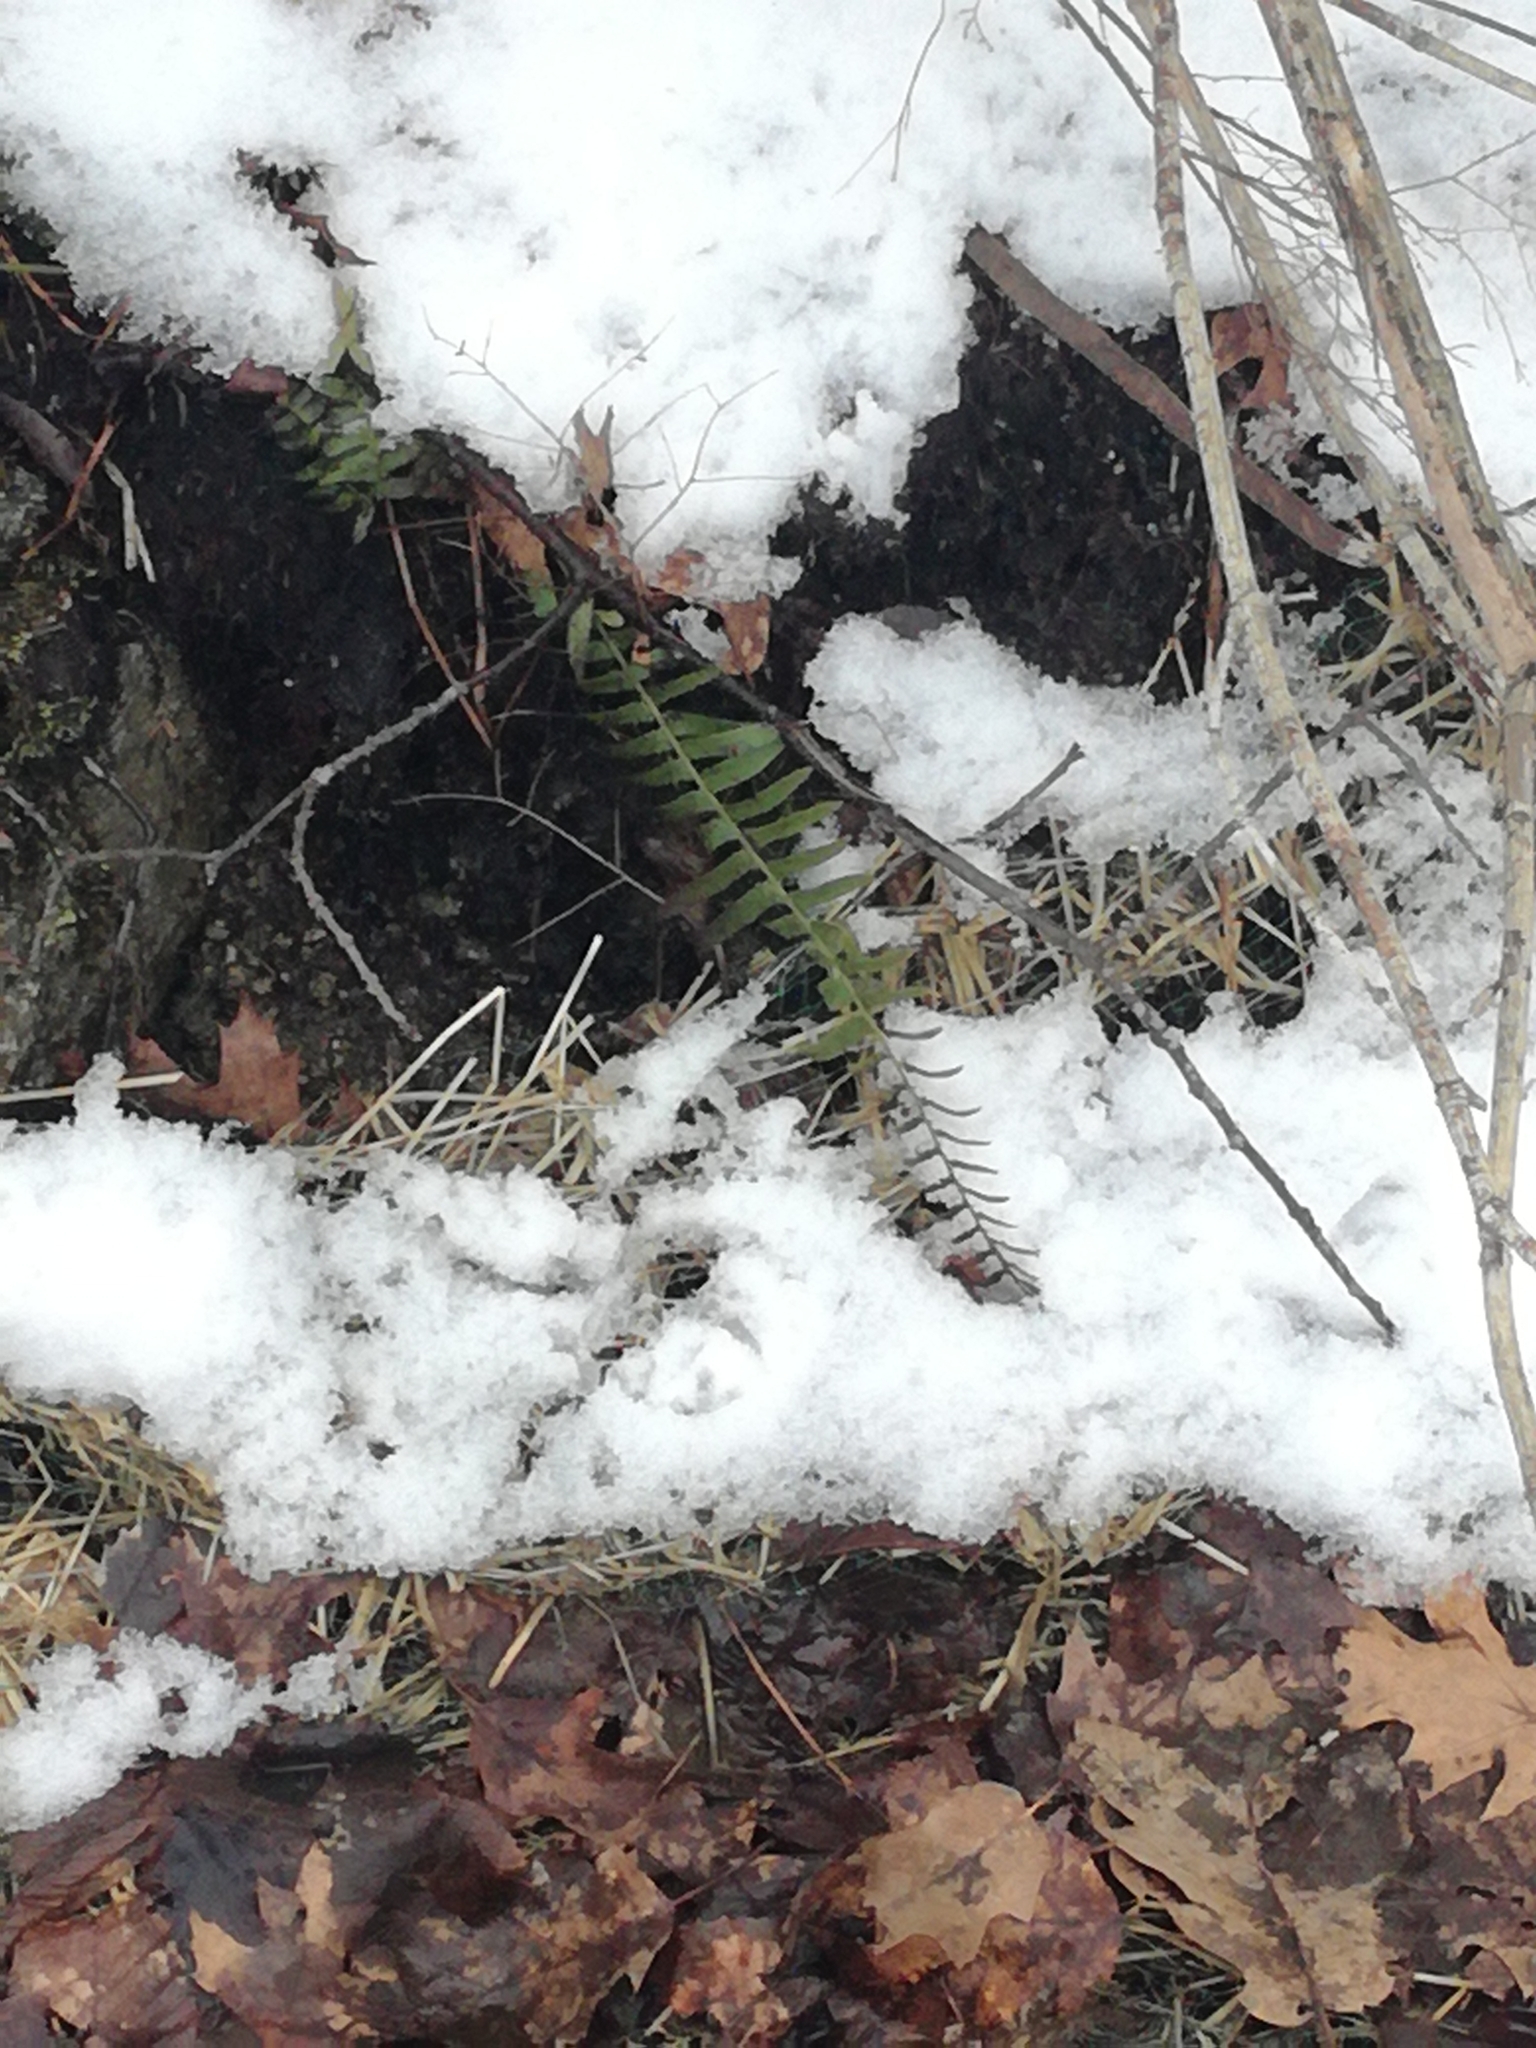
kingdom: Plantae
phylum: Tracheophyta
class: Polypodiopsida
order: Polypodiales
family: Dryopteridaceae
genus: Polystichum
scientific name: Polystichum acrostichoides
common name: Christmas fern
